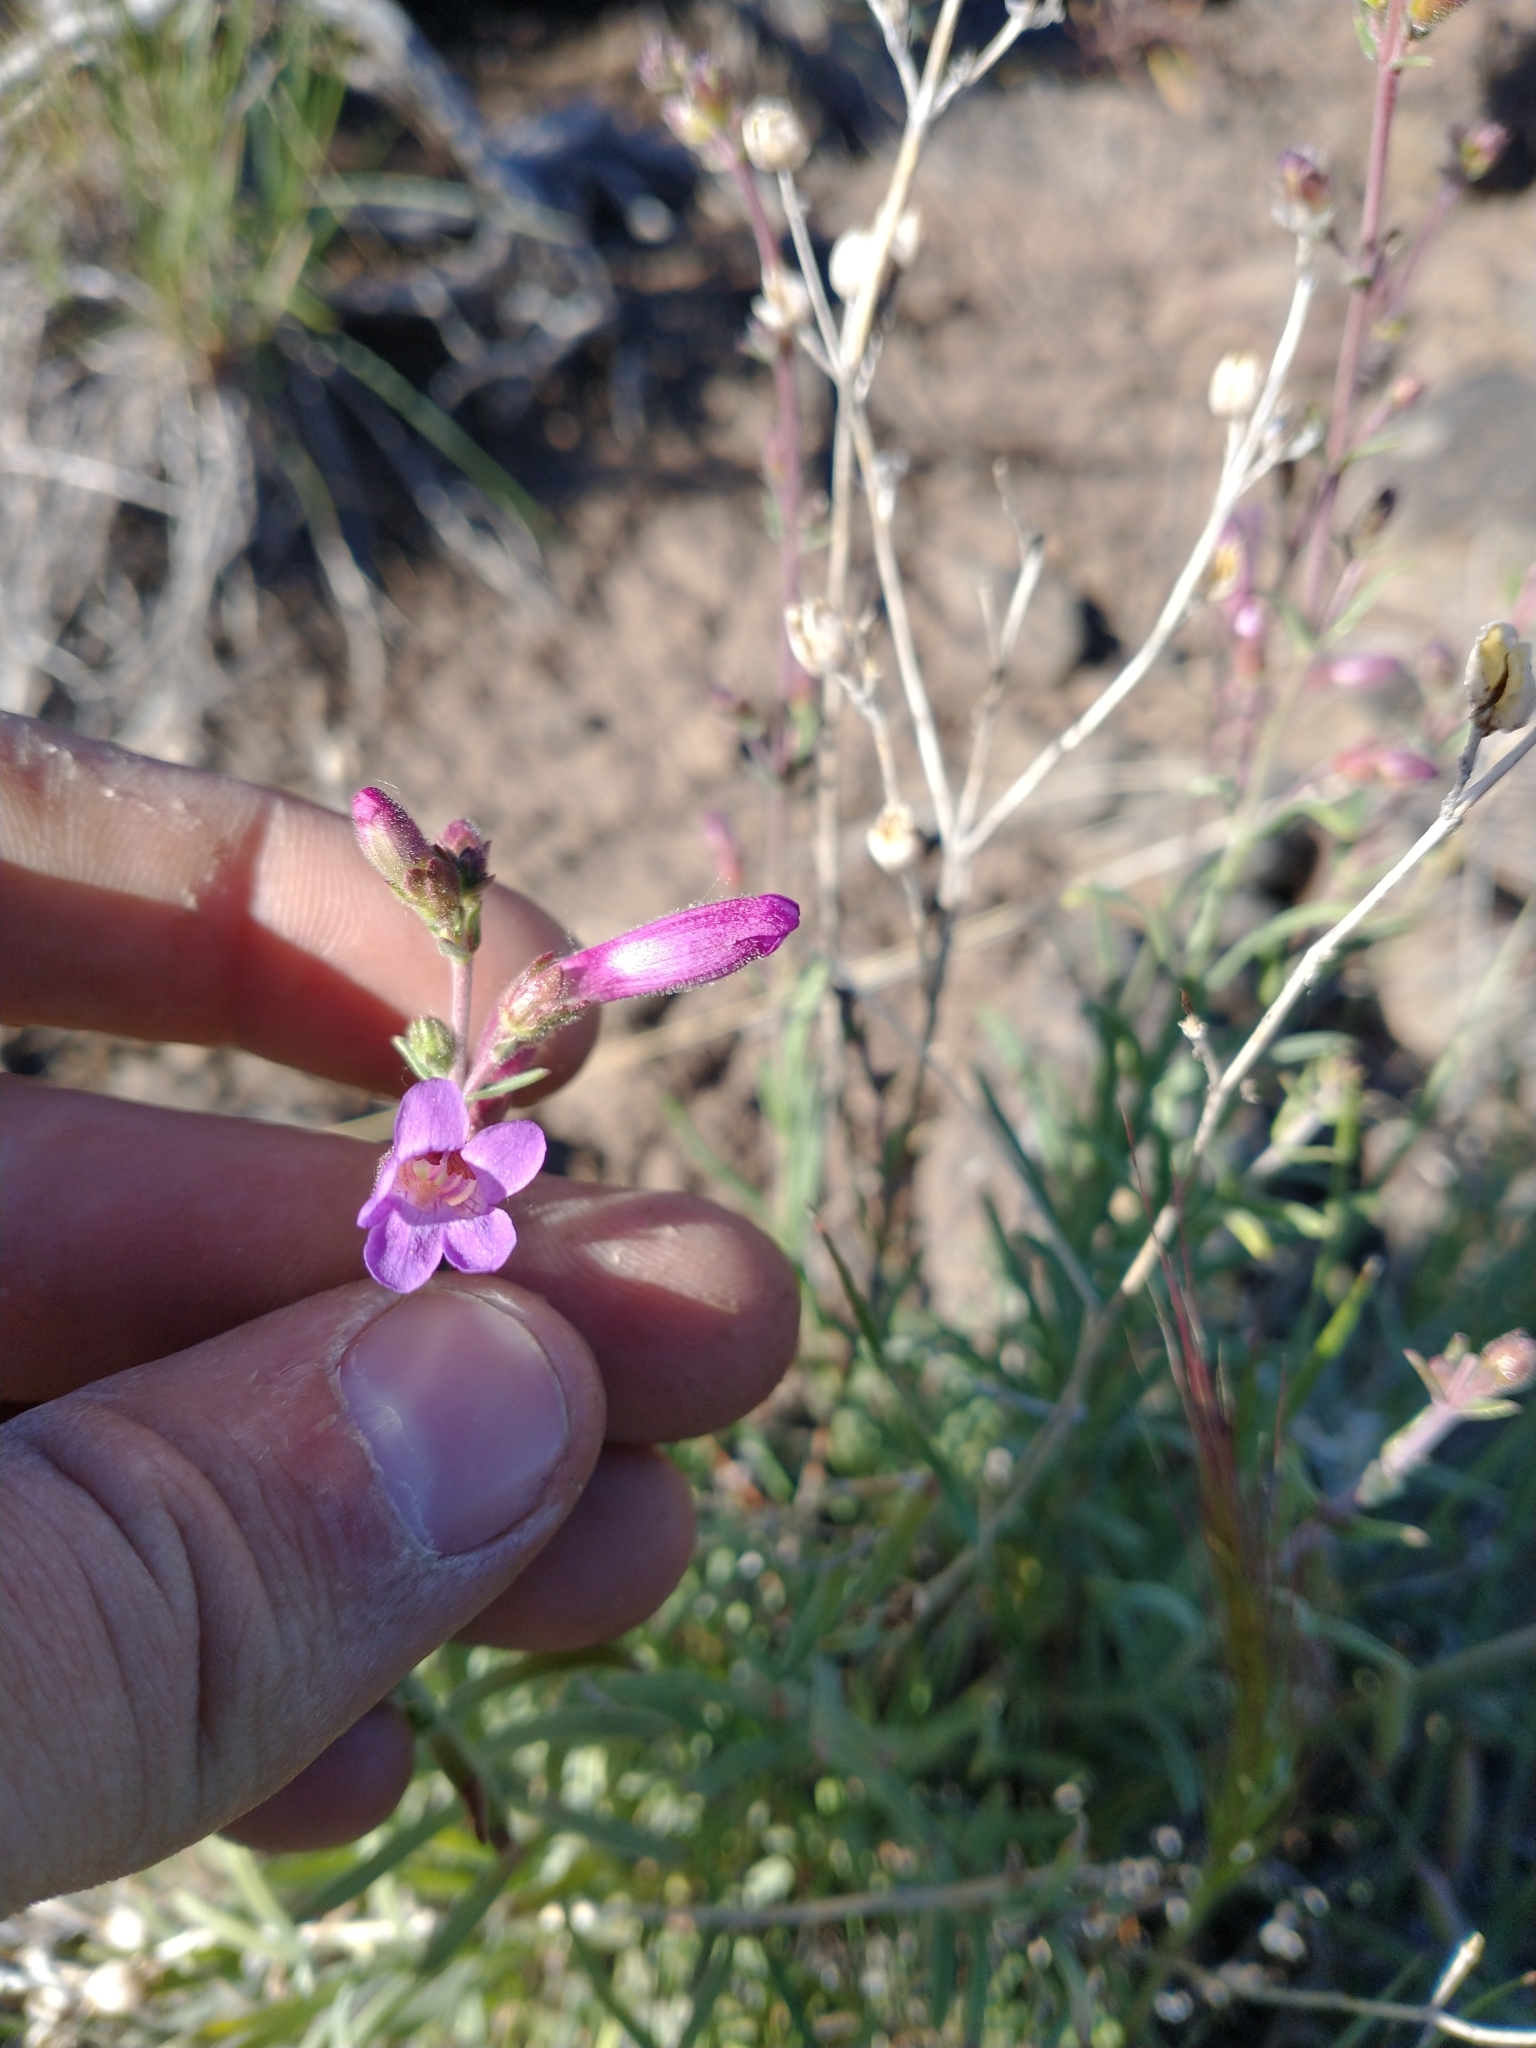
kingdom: Plantae
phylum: Tracheophyta
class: Magnoliopsida
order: Lamiales
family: Plantaginaceae
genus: Penstemon
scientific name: Penstemon gairdneri
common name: Gairdner's penstemon
